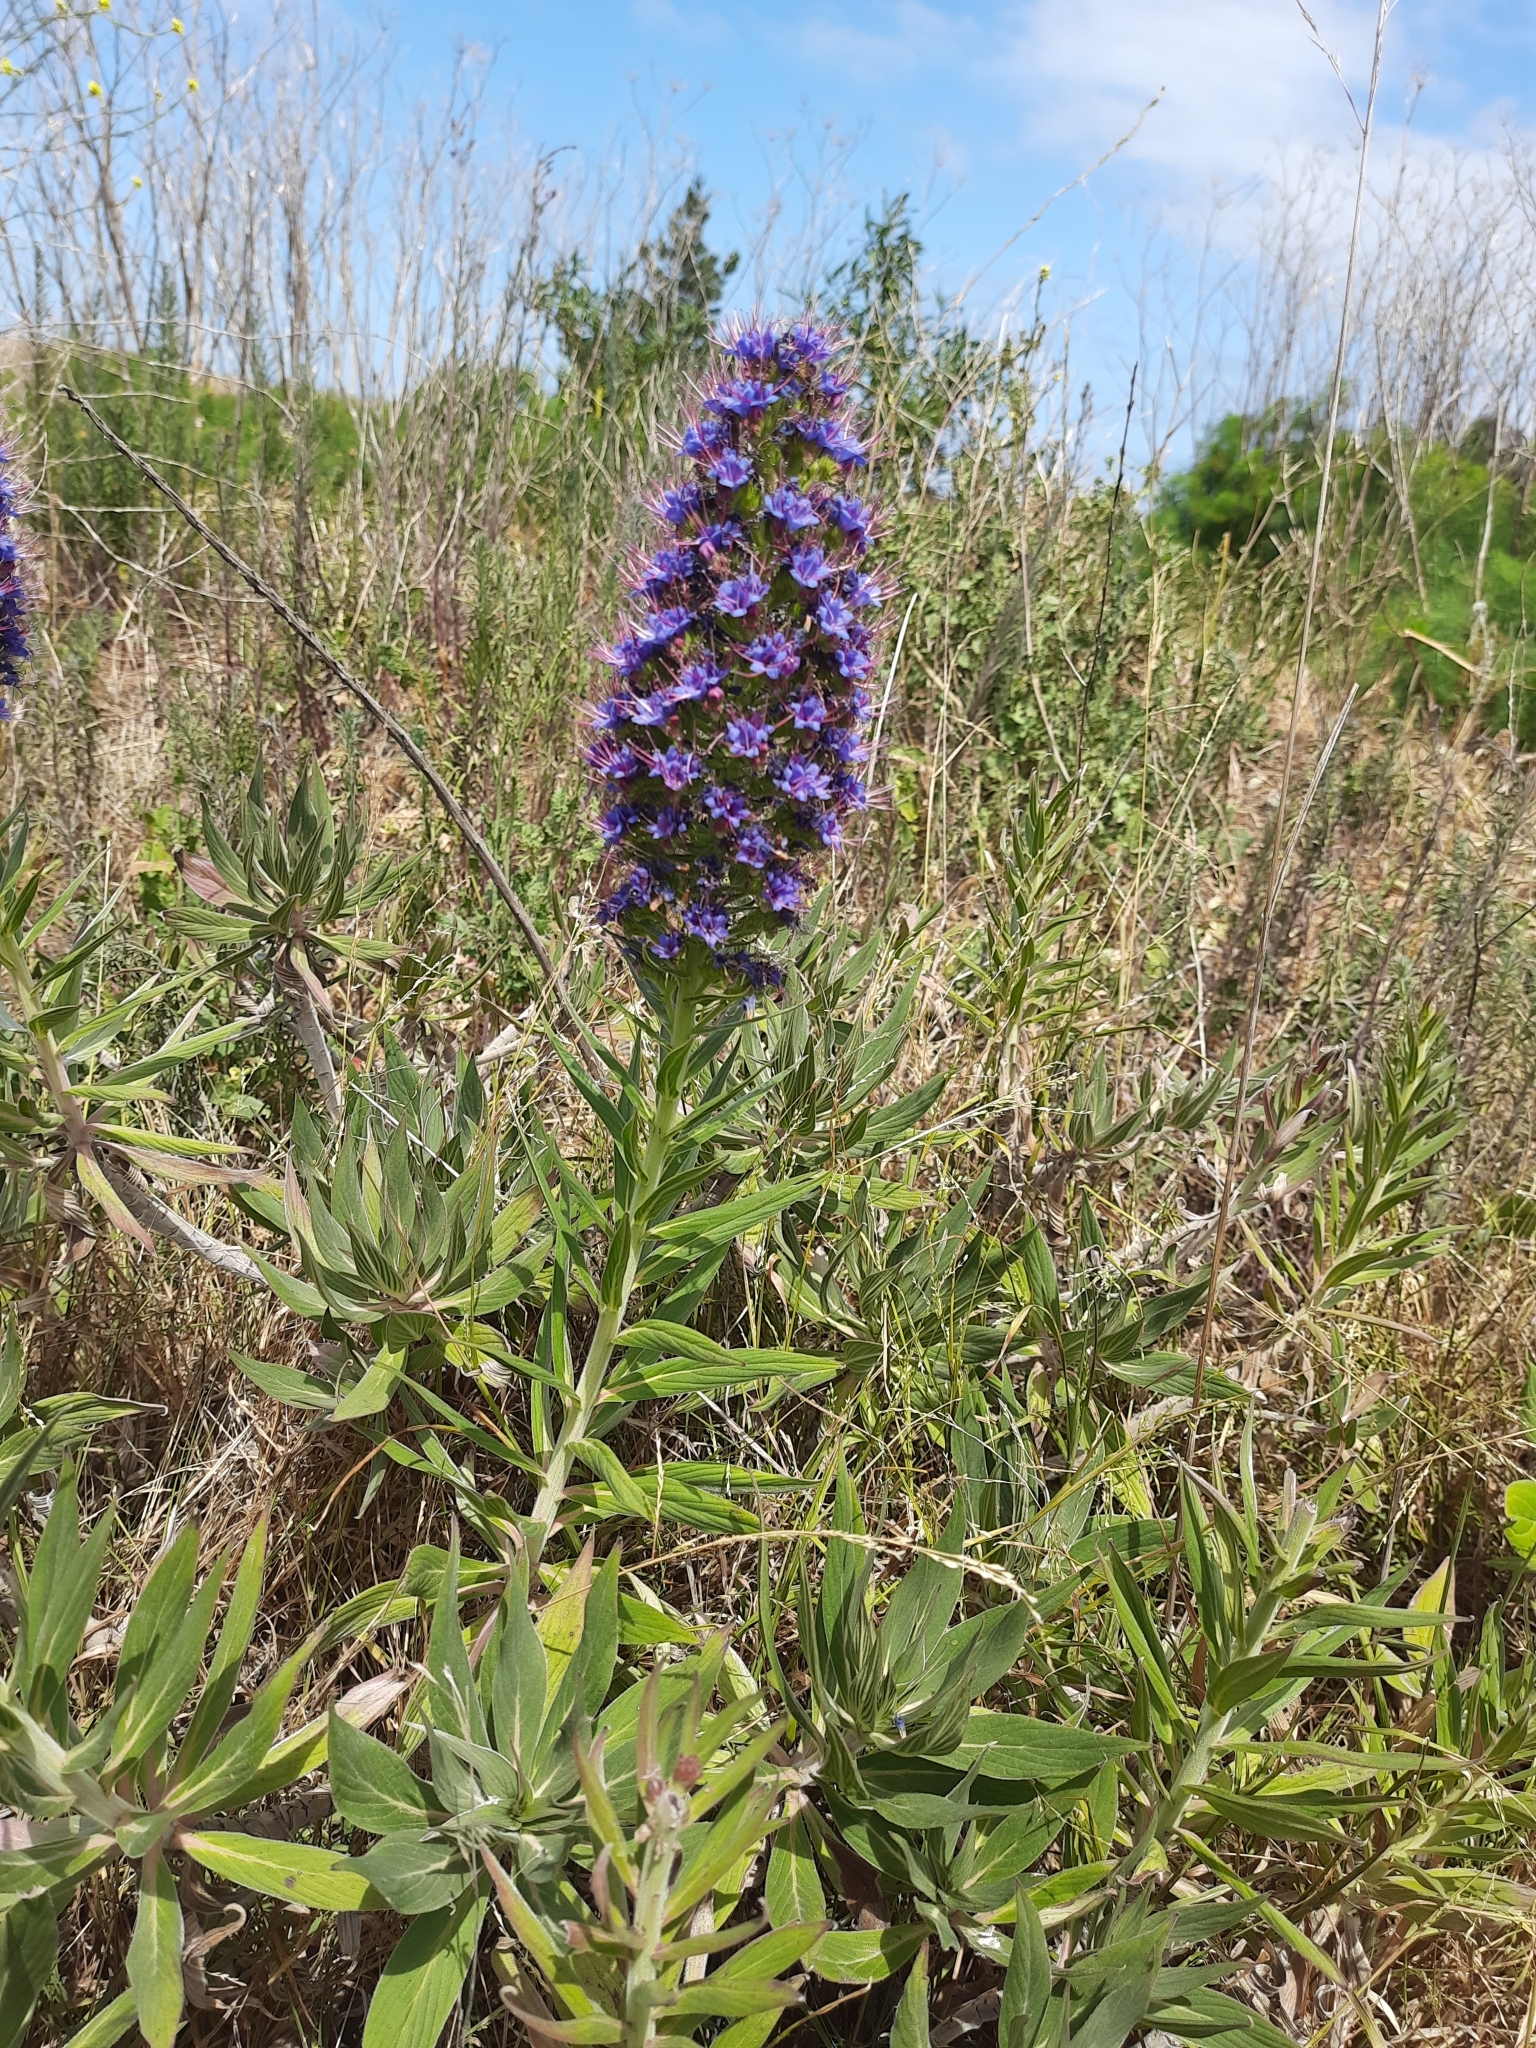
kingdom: Plantae
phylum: Tracheophyta
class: Magnoliopsida
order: Boraginales
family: Boraginaceae
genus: Echium
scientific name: Echium candicans
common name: Pride of madeira
